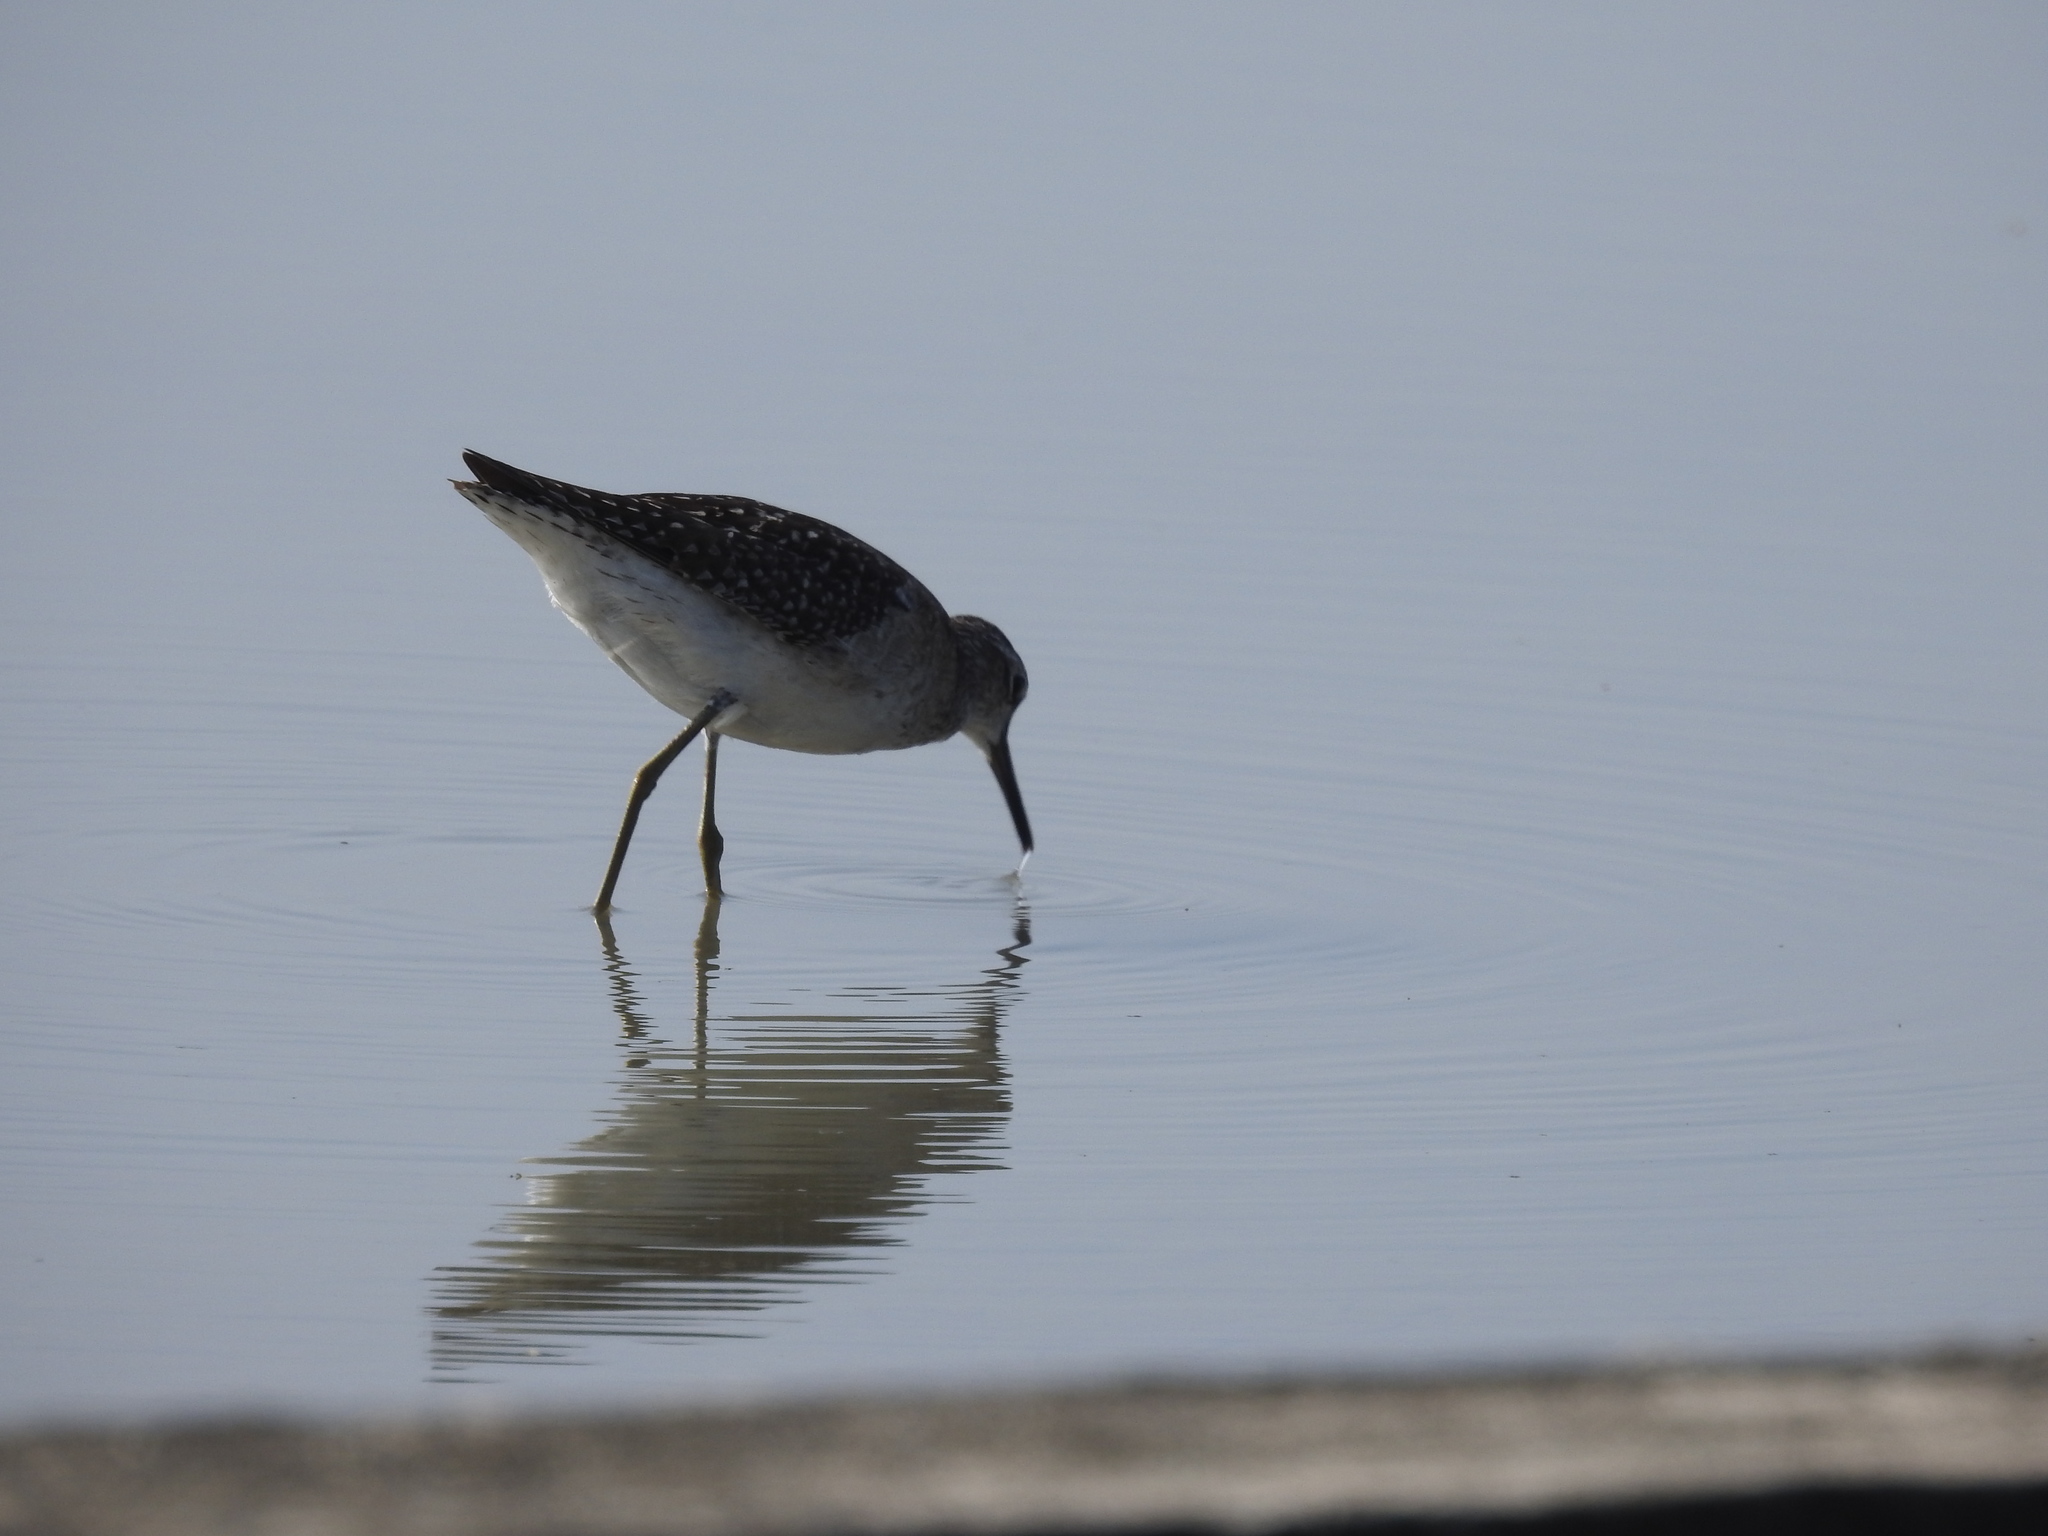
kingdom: Animalia
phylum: Chordata
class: Aves
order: Charadriiformes
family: Scolopacidae
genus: Tringa
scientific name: Tringa glareola
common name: Wood sandpiper
